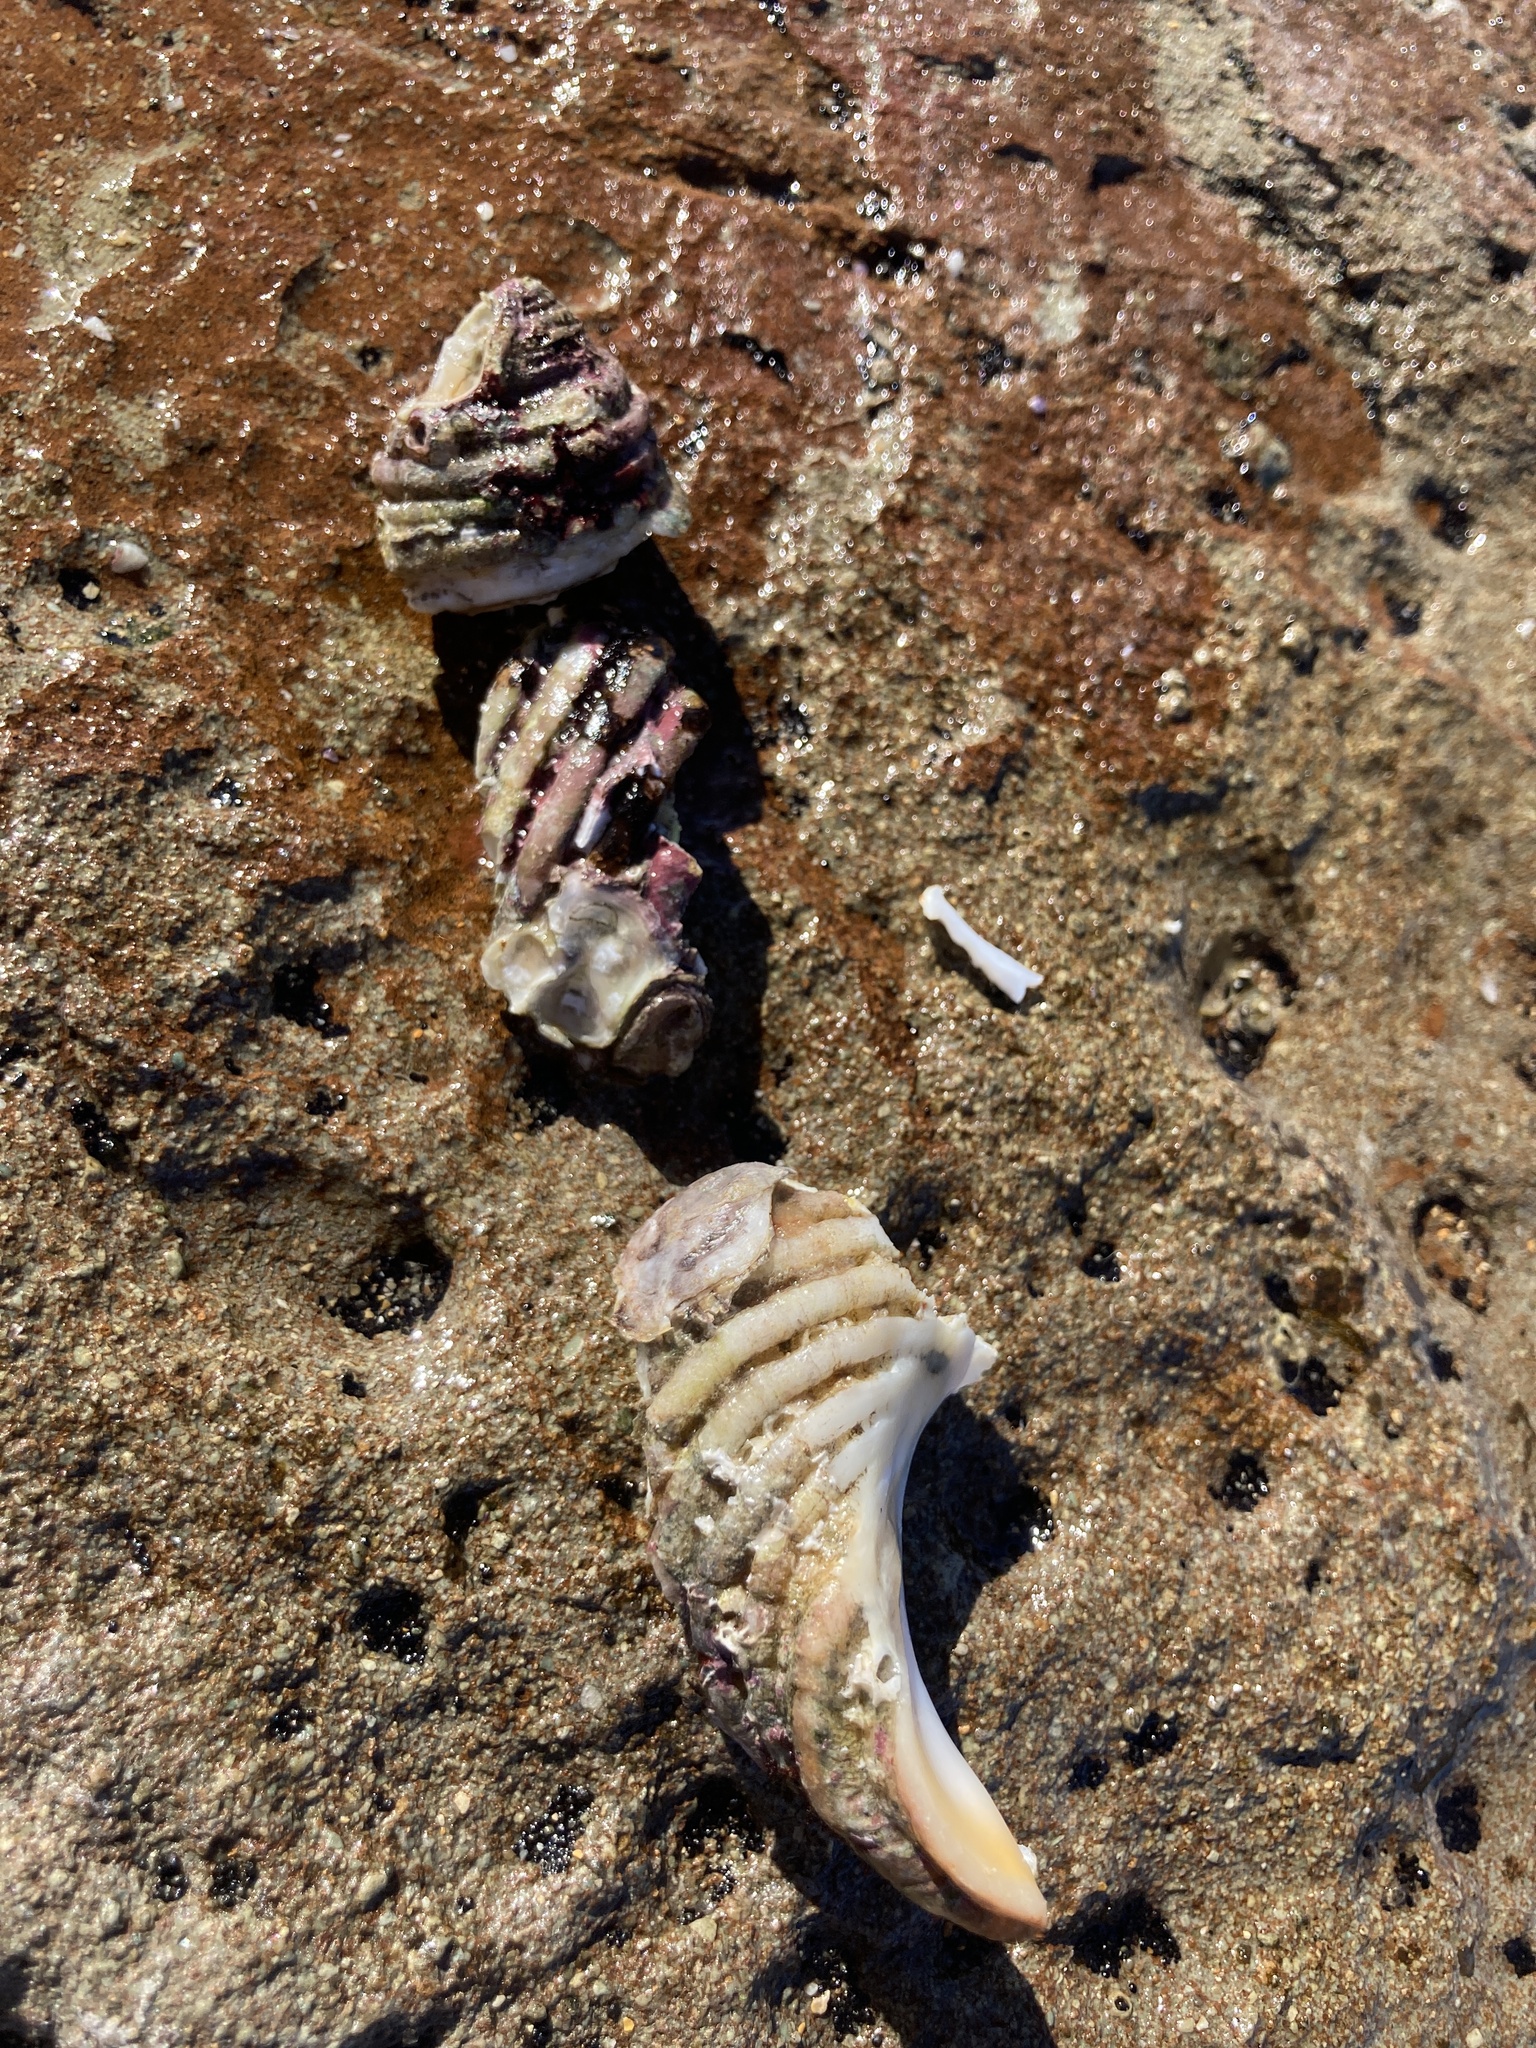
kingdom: Animalia
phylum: Mollusca
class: Gastropoda
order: Neogastropoda
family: Muricidae
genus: Dicathais
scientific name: Dicathais orbita
